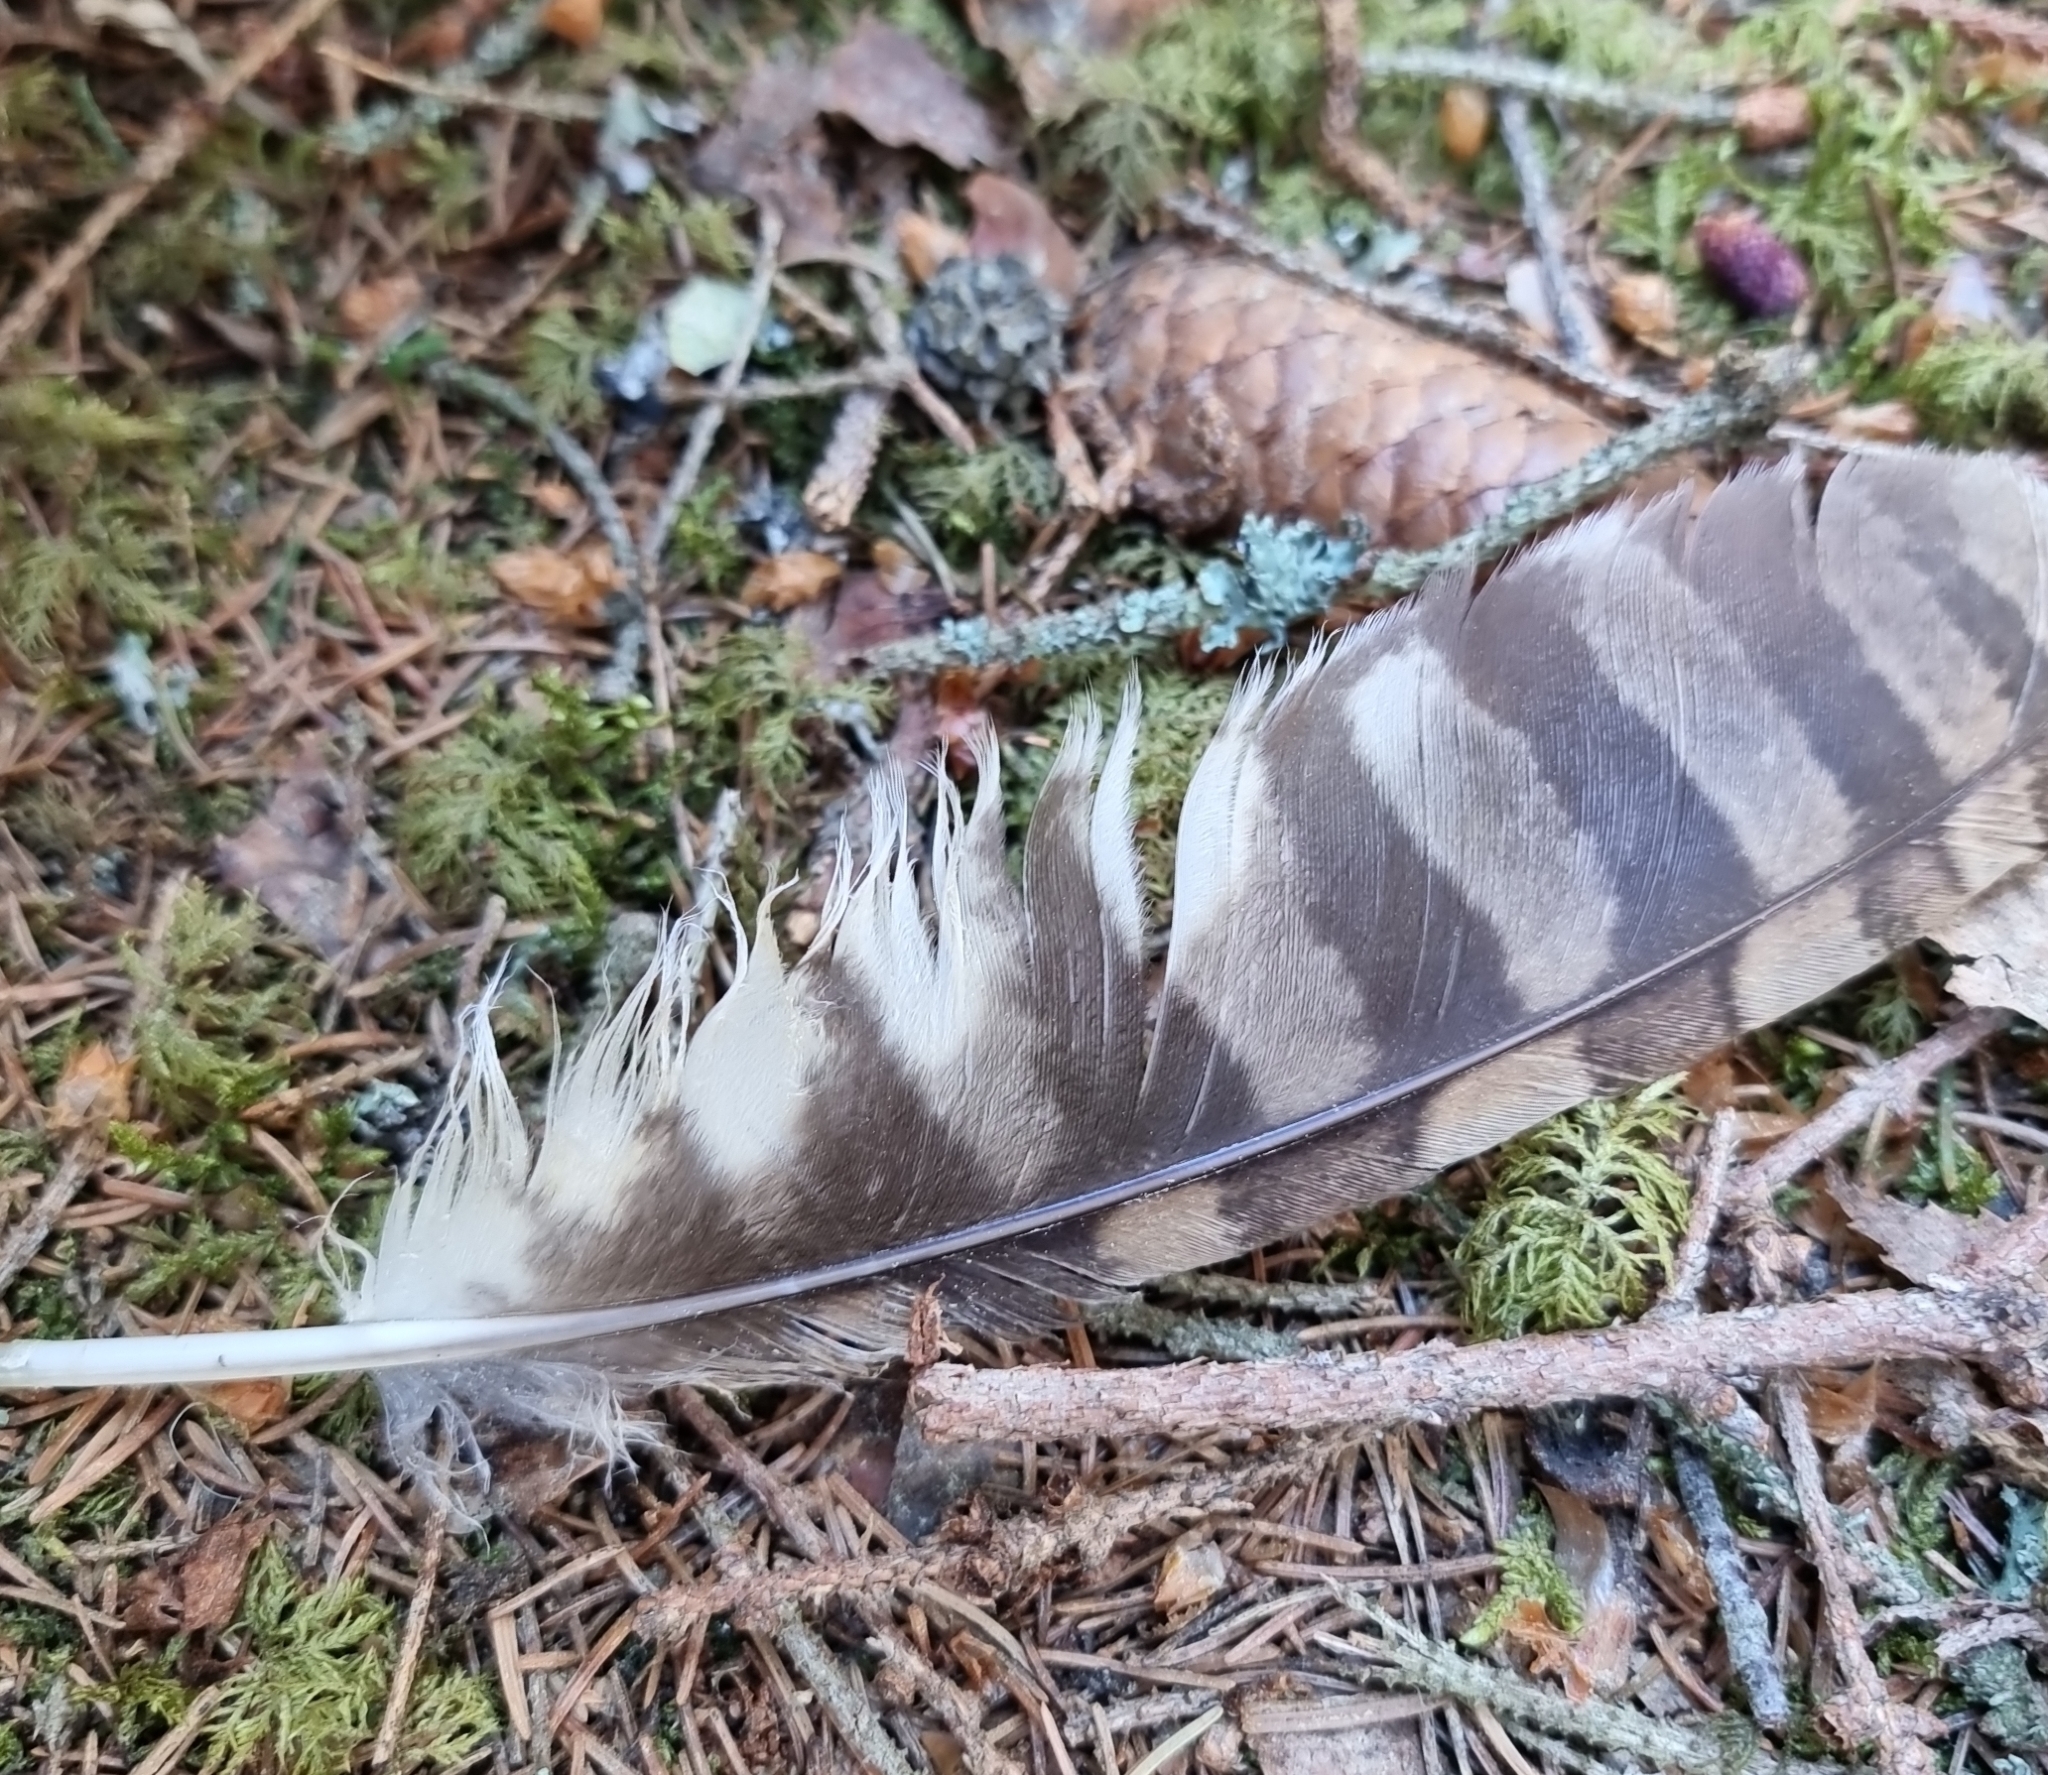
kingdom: Animalia
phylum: Chordata
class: Aves
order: Strigiformes
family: Strigidae
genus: Strix
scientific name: Strix aluco
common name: Tawny owl
